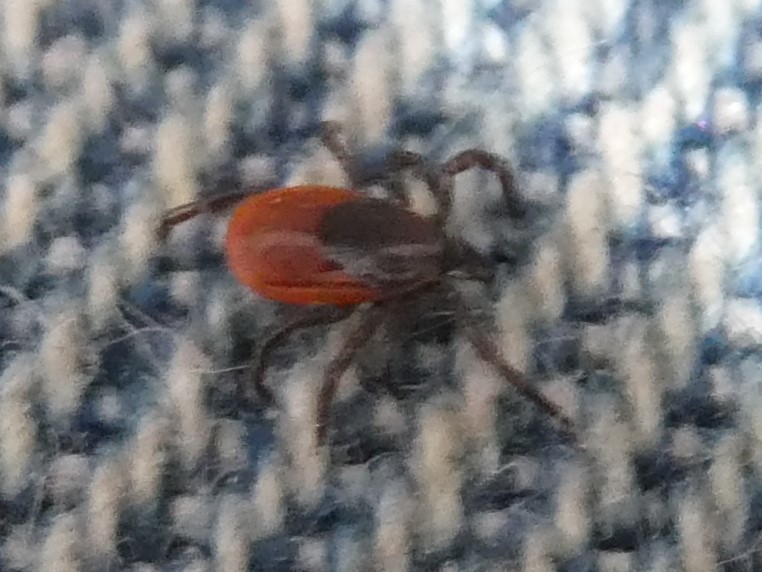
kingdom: Animalia
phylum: Arthropoda
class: Arachnida
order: Ixodida
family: Ixodidae
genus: Ixodes
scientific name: Ixodes scapularis
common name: Black legged tick
